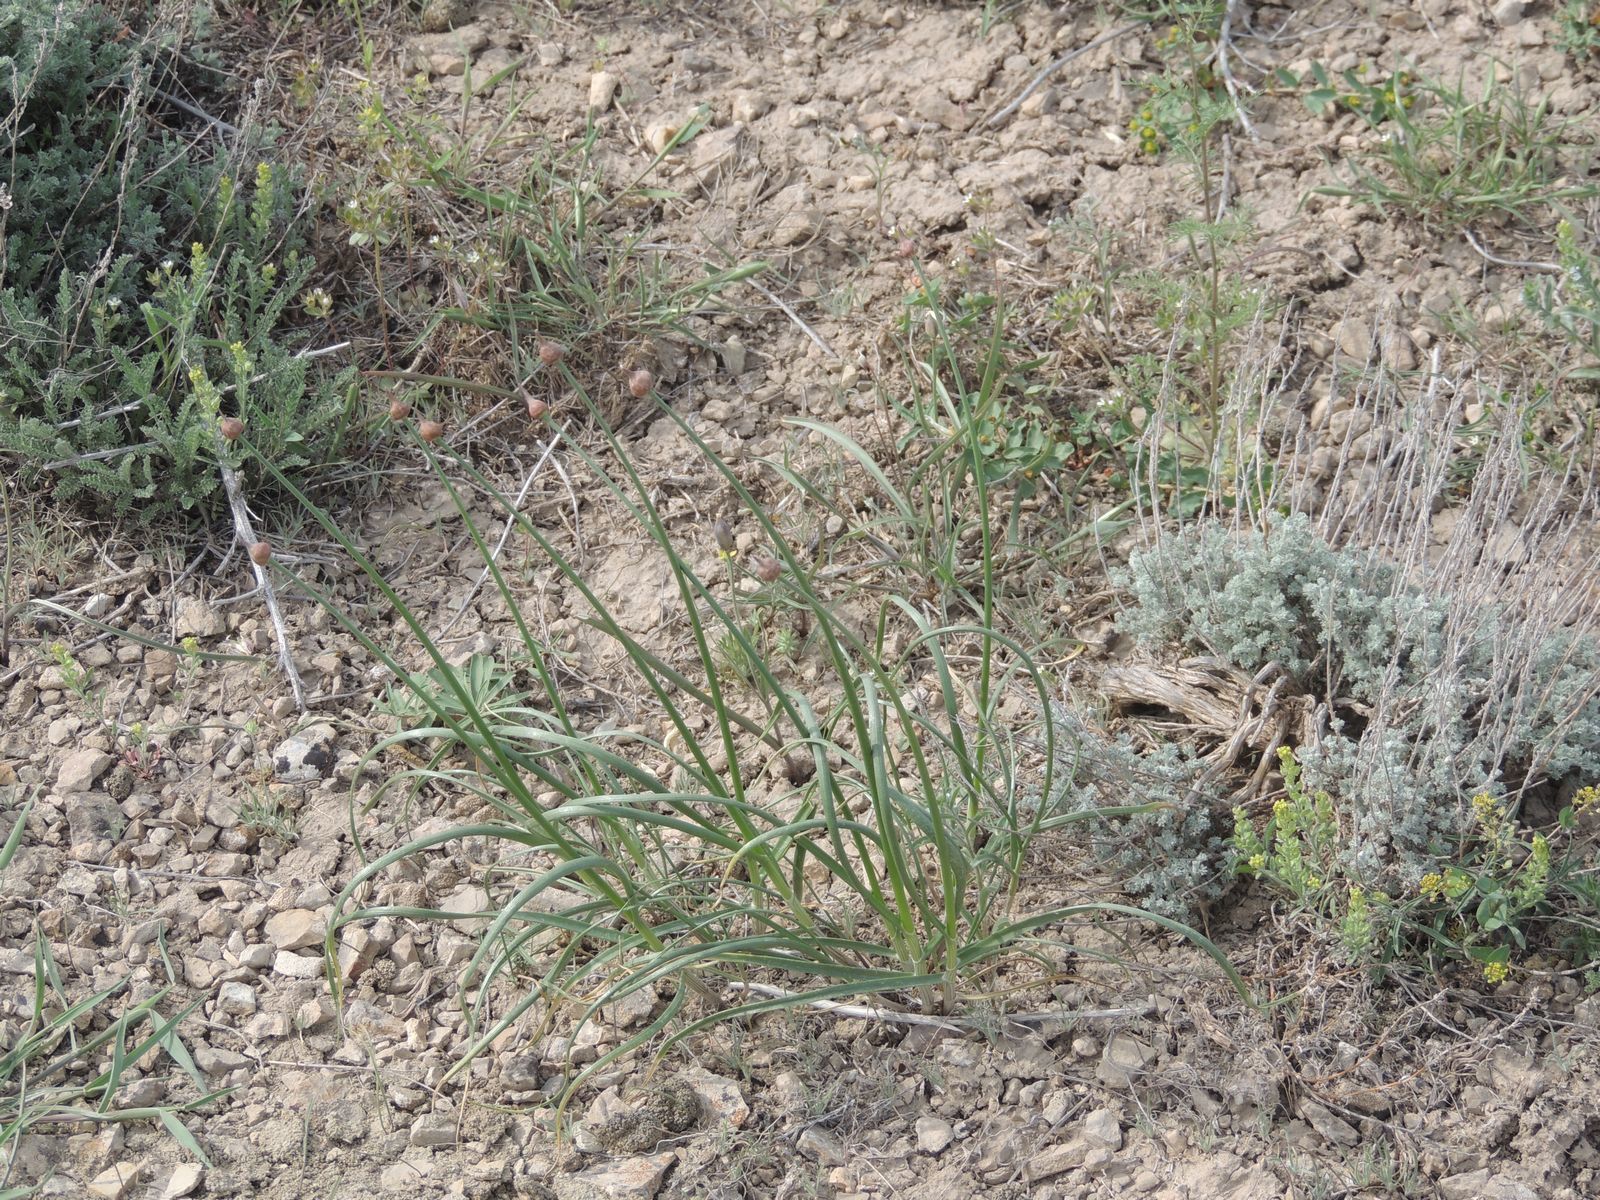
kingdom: Plantae
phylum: Tracheophyta
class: Liliopsida
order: Asparagales
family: Amaryllidaceae
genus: Allium
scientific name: Allium inderiense
